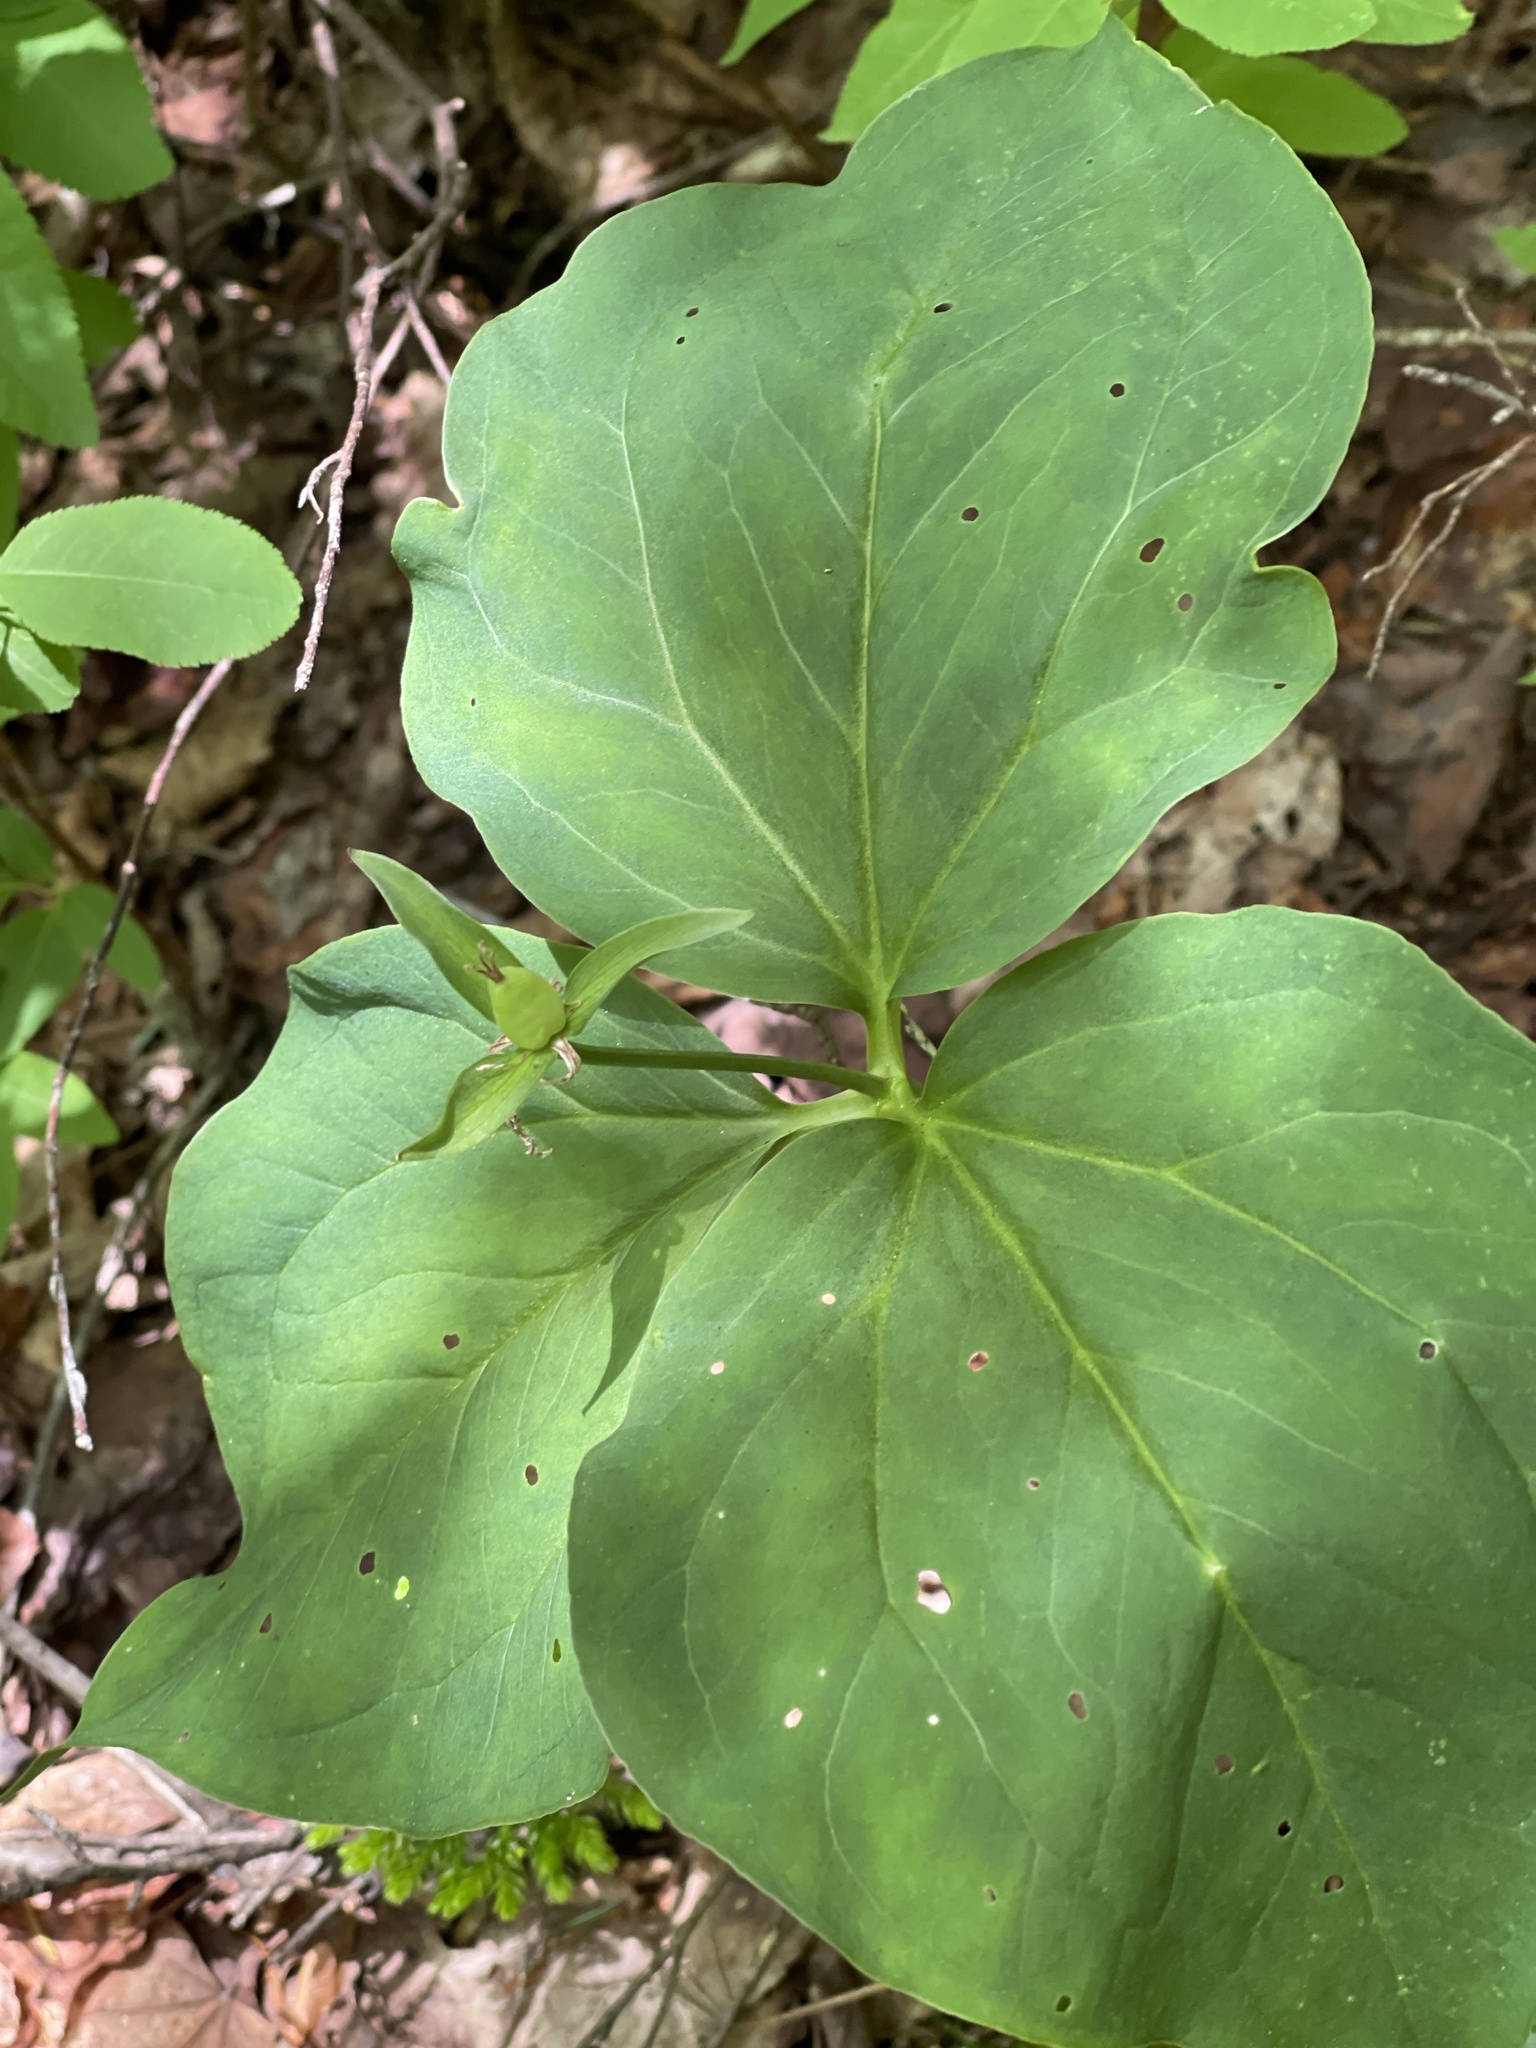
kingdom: Plantae
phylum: Tracheophyta
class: Liliopsida
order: Liliales
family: Melanthiaceae
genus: Trillium
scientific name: Trillium undulatum
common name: Paint trillium
